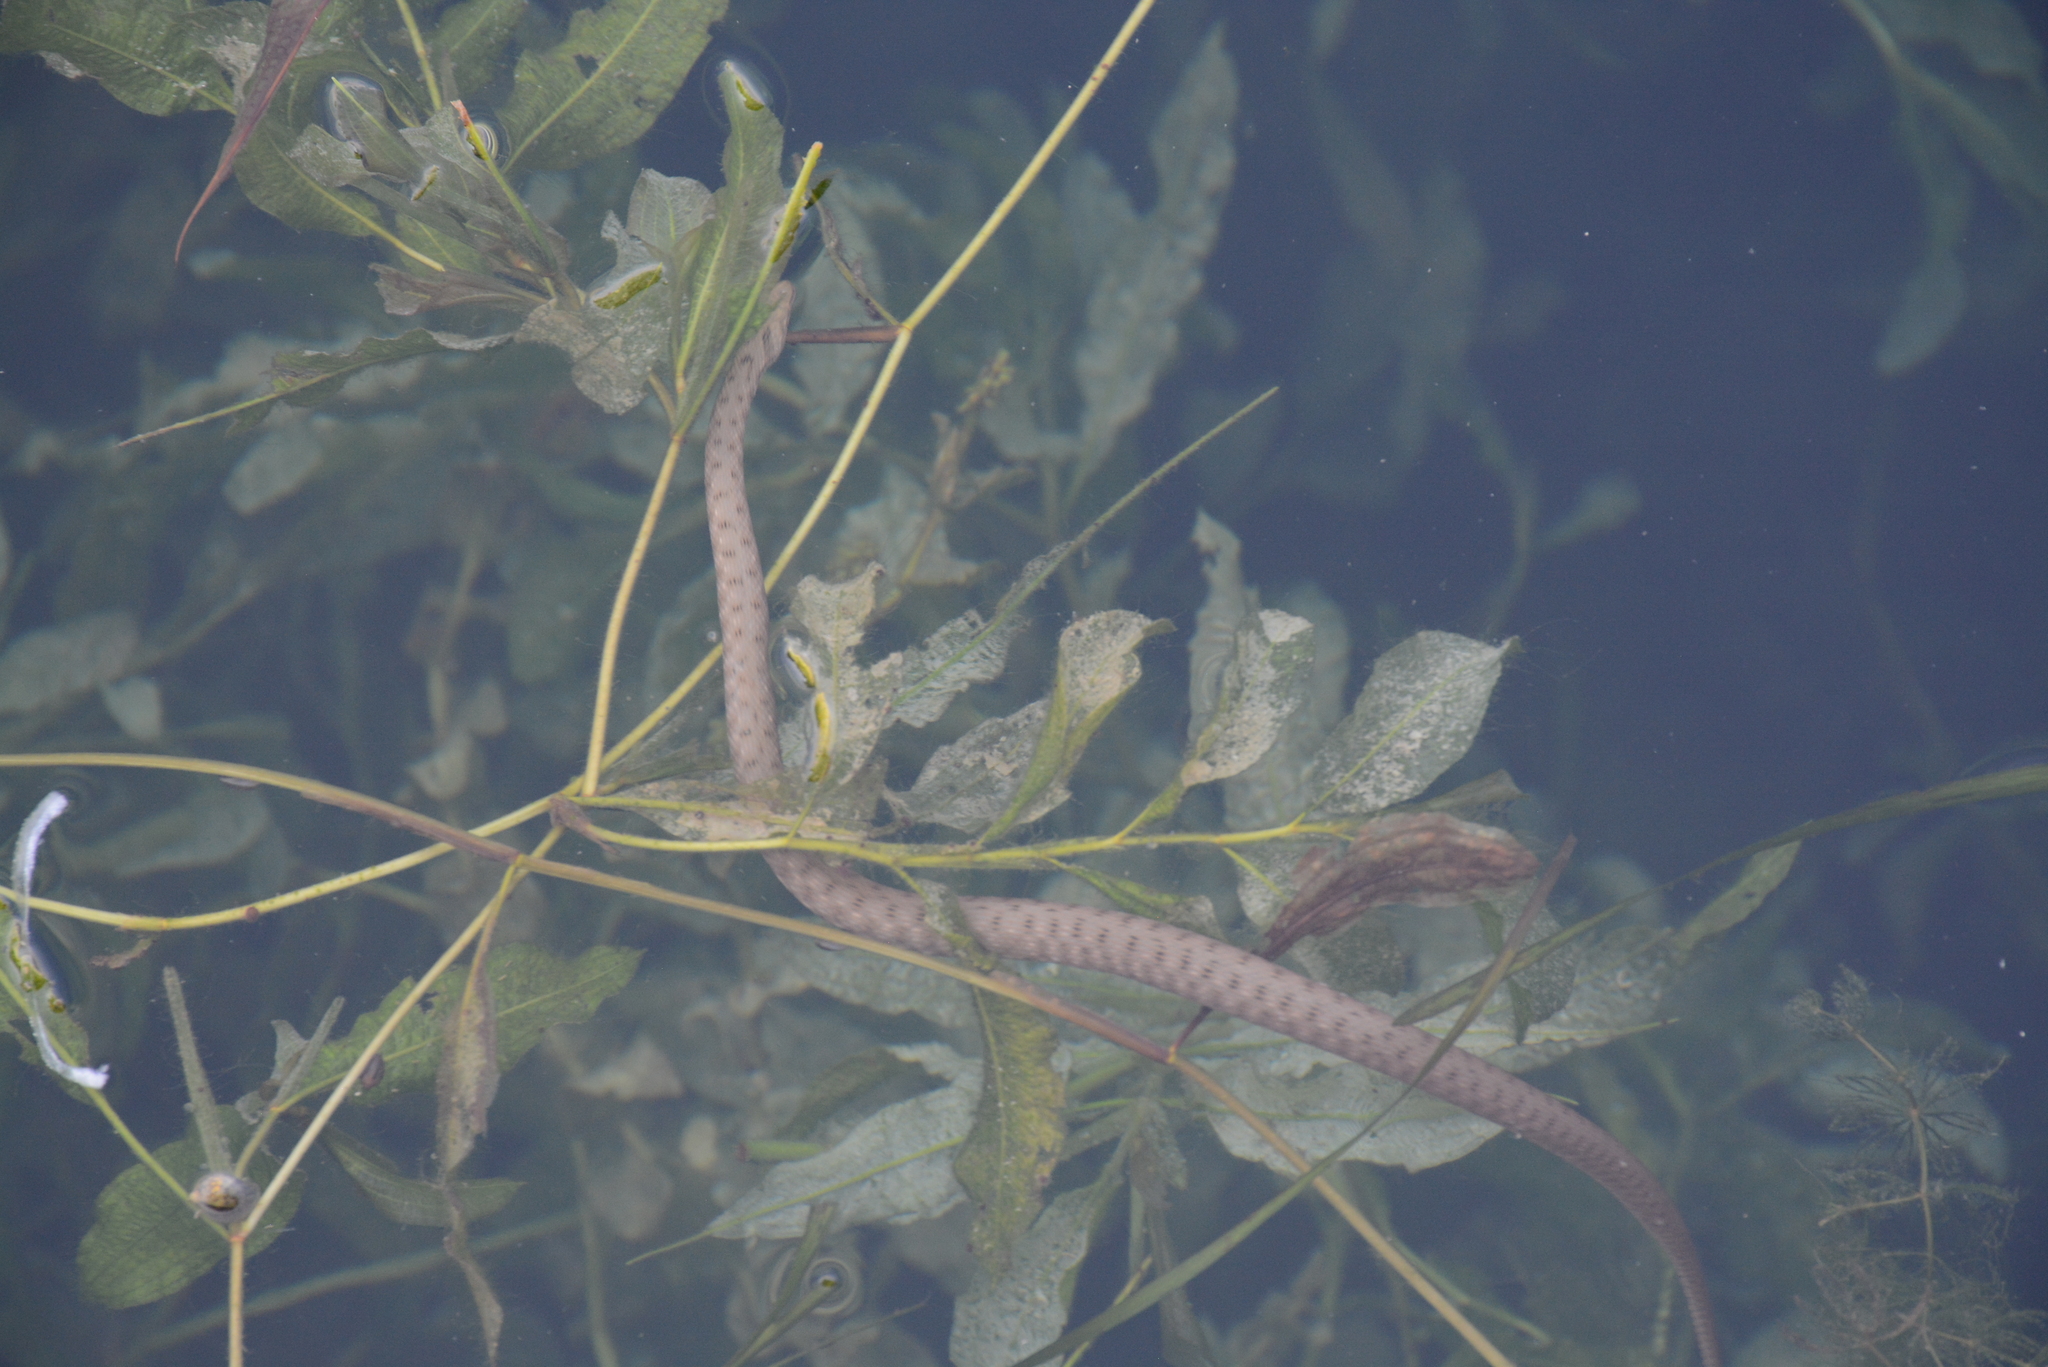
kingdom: Animalia
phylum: Chordata
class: Squamata
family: Colubridae
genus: Natrix
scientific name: Natrix tessellata
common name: Dice snake
